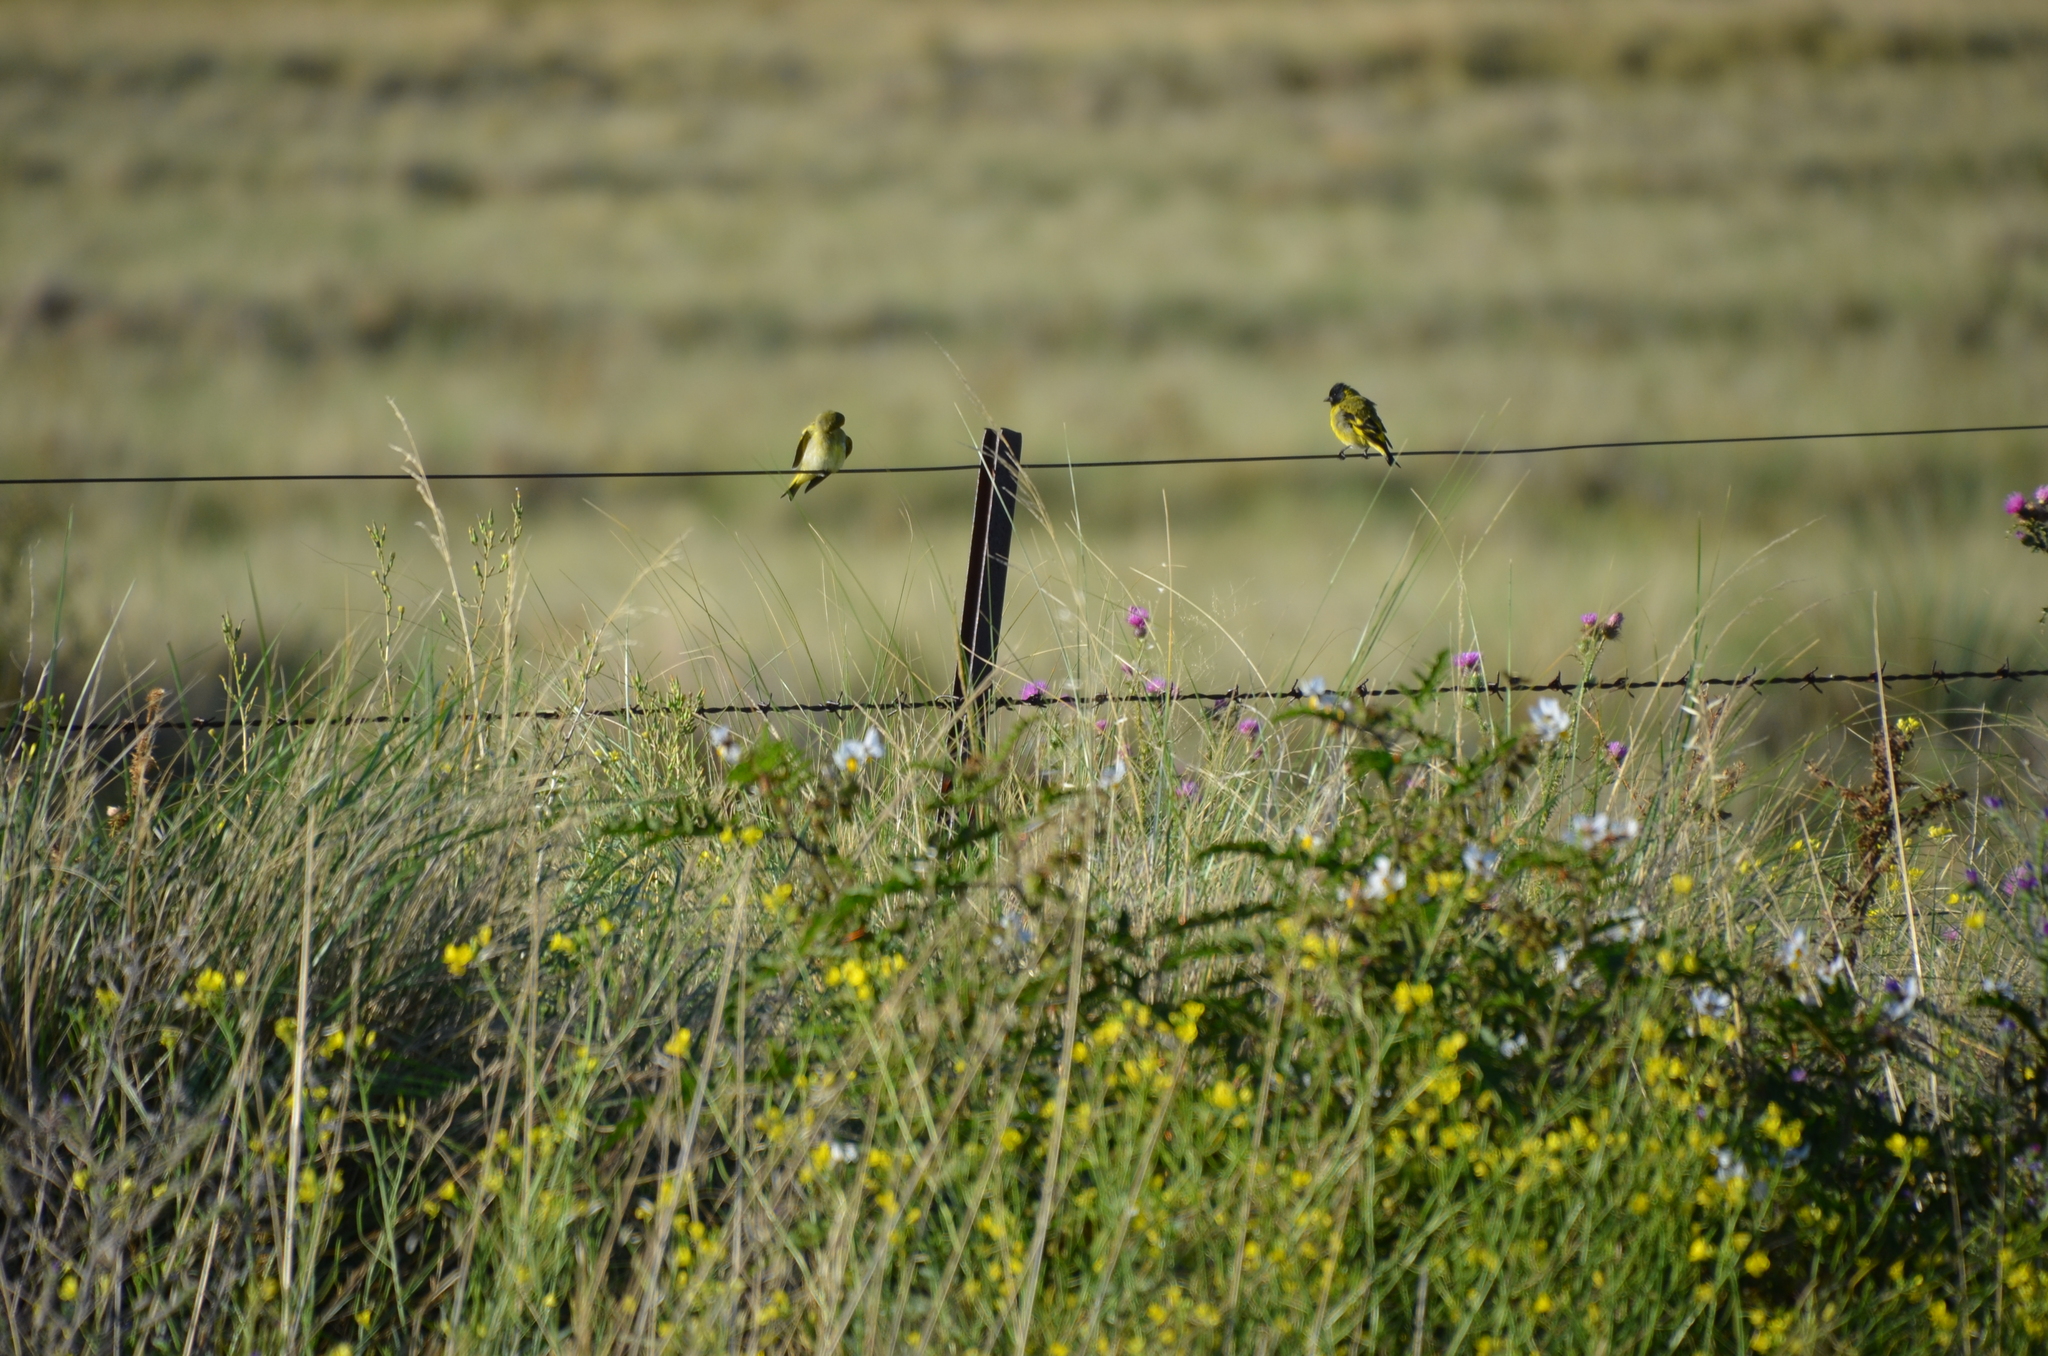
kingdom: Animalia
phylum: Chordata
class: Aves
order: Passeriformes
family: Fringillidae
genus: Spinus
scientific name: Spinus magellanicus
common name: Hooded siskin
